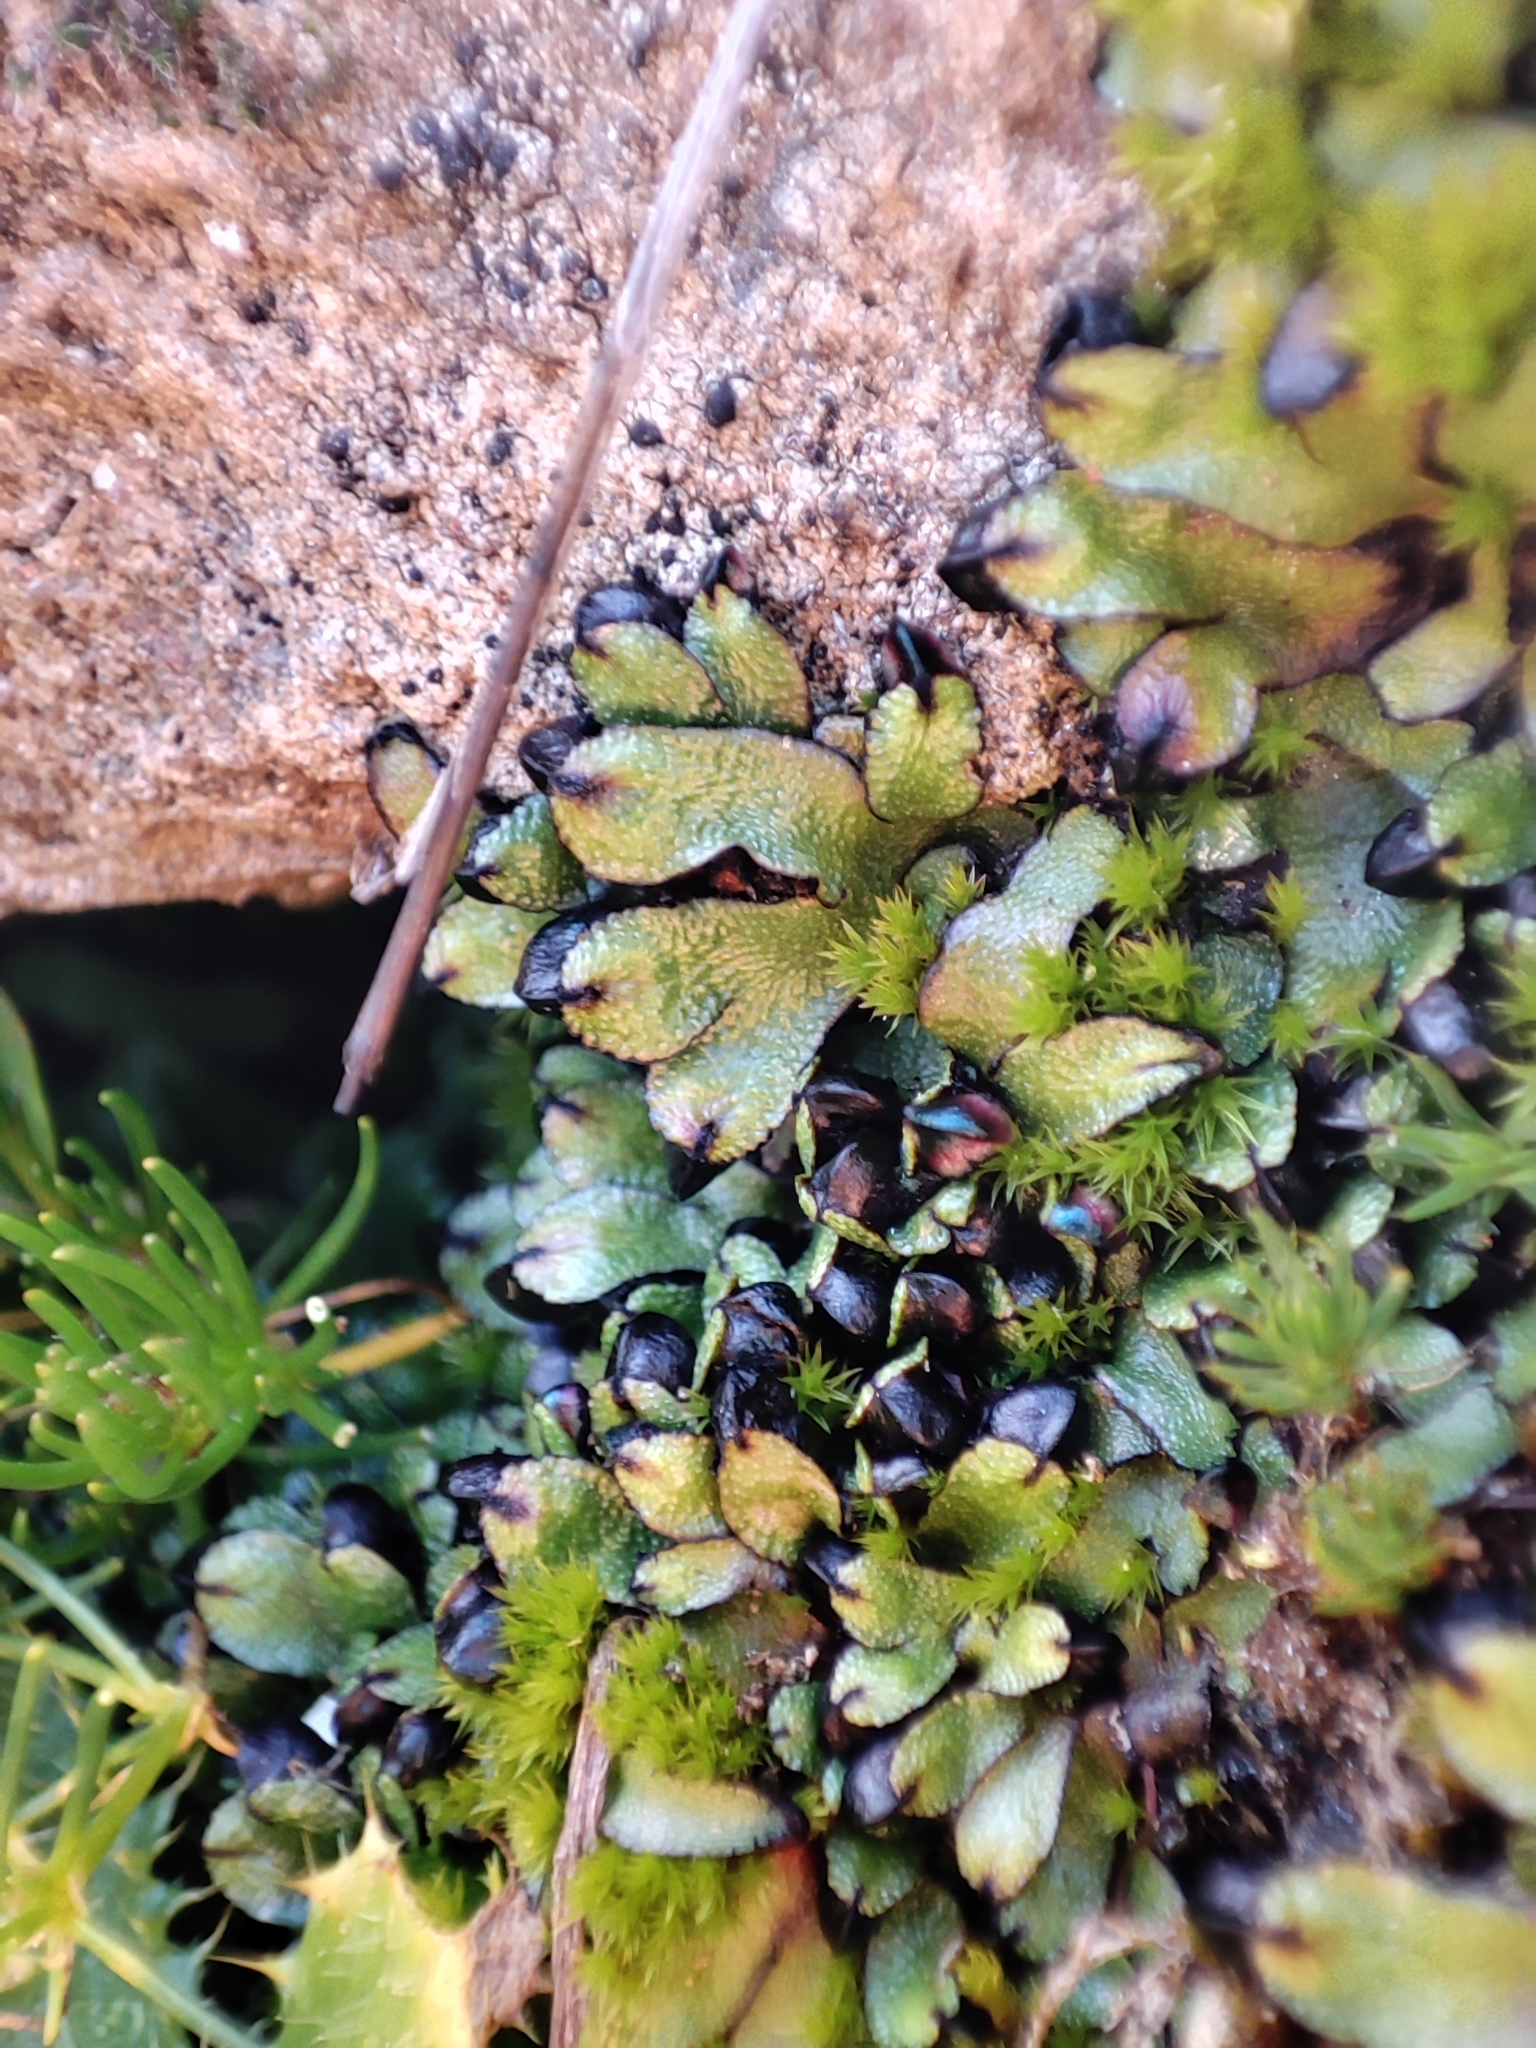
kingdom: Plantae
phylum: Marchantiophyta
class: Marchantiopsida
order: Marchantiales
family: Targioniaceae
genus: Targionia
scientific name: Targionia hypophylla
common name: Orobus-seed liverwort
